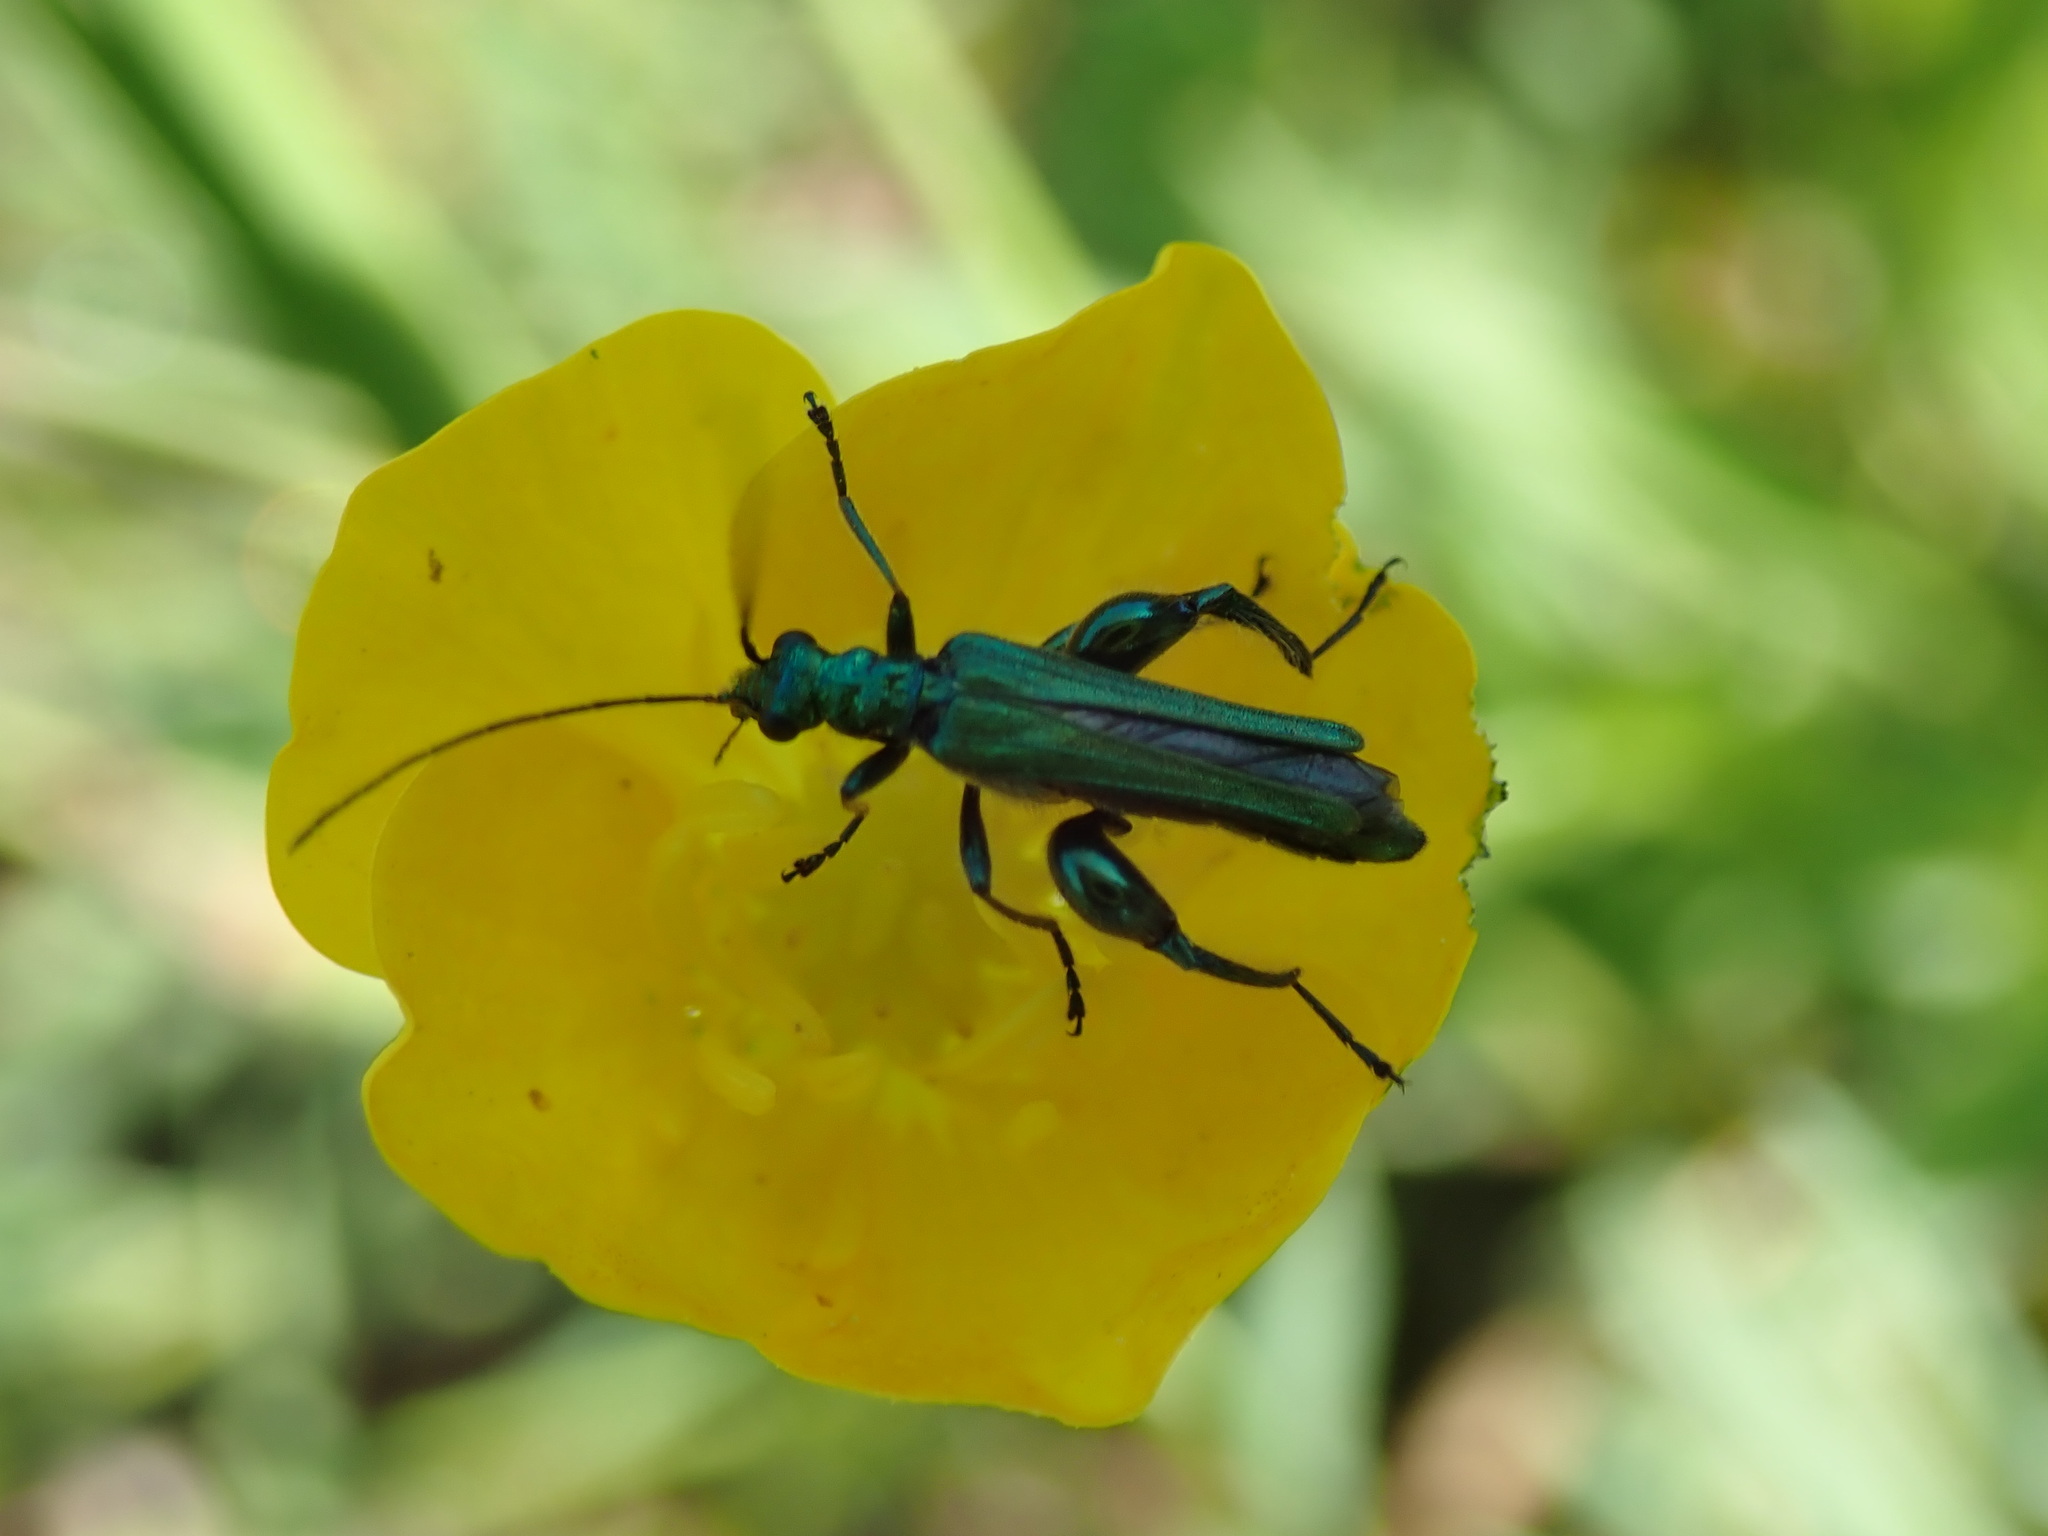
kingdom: Animalia
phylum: Arthropoda
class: Insecta
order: Coleoptera
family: Oedemeridae
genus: Oedemera
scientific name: Oedemera nobilis
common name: Swollen-thighed beetle
